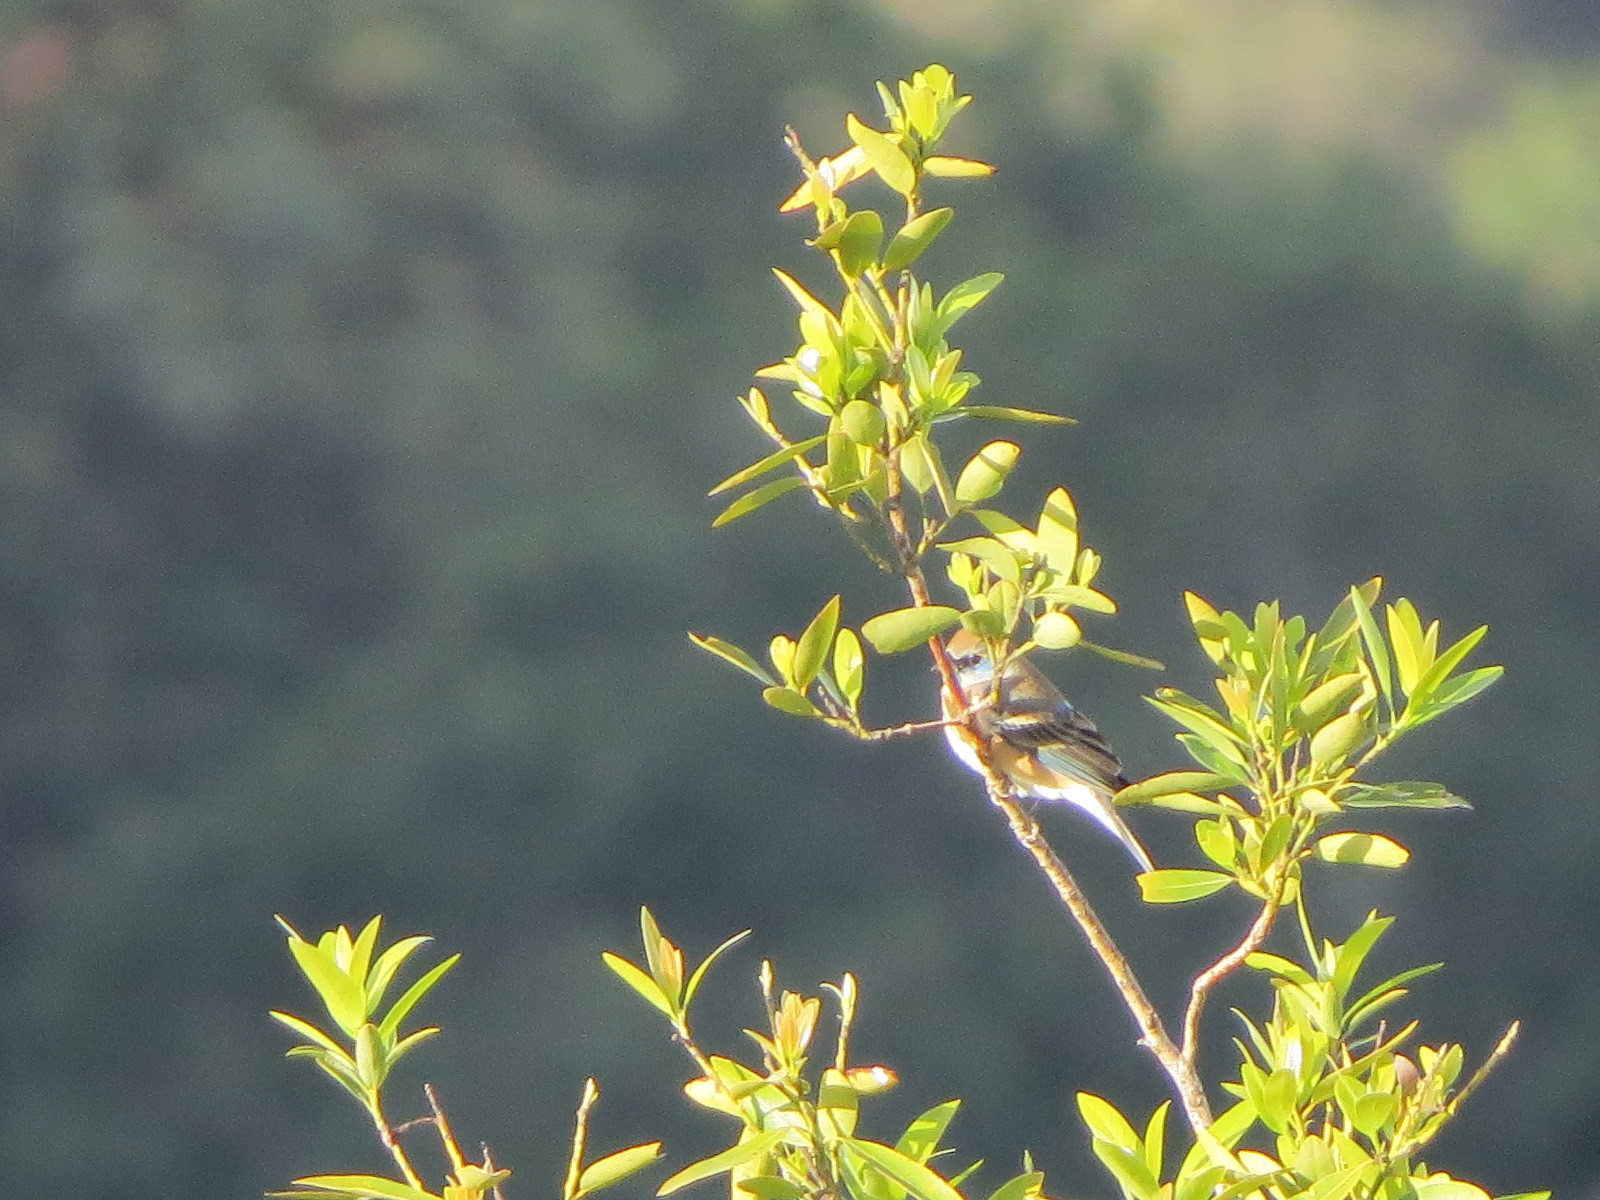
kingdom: Animalia
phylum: Chordata
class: Aves
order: Passeriformes
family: Cardinalidae
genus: Passerina
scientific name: Passerina amoena
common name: Lazuli bunting
